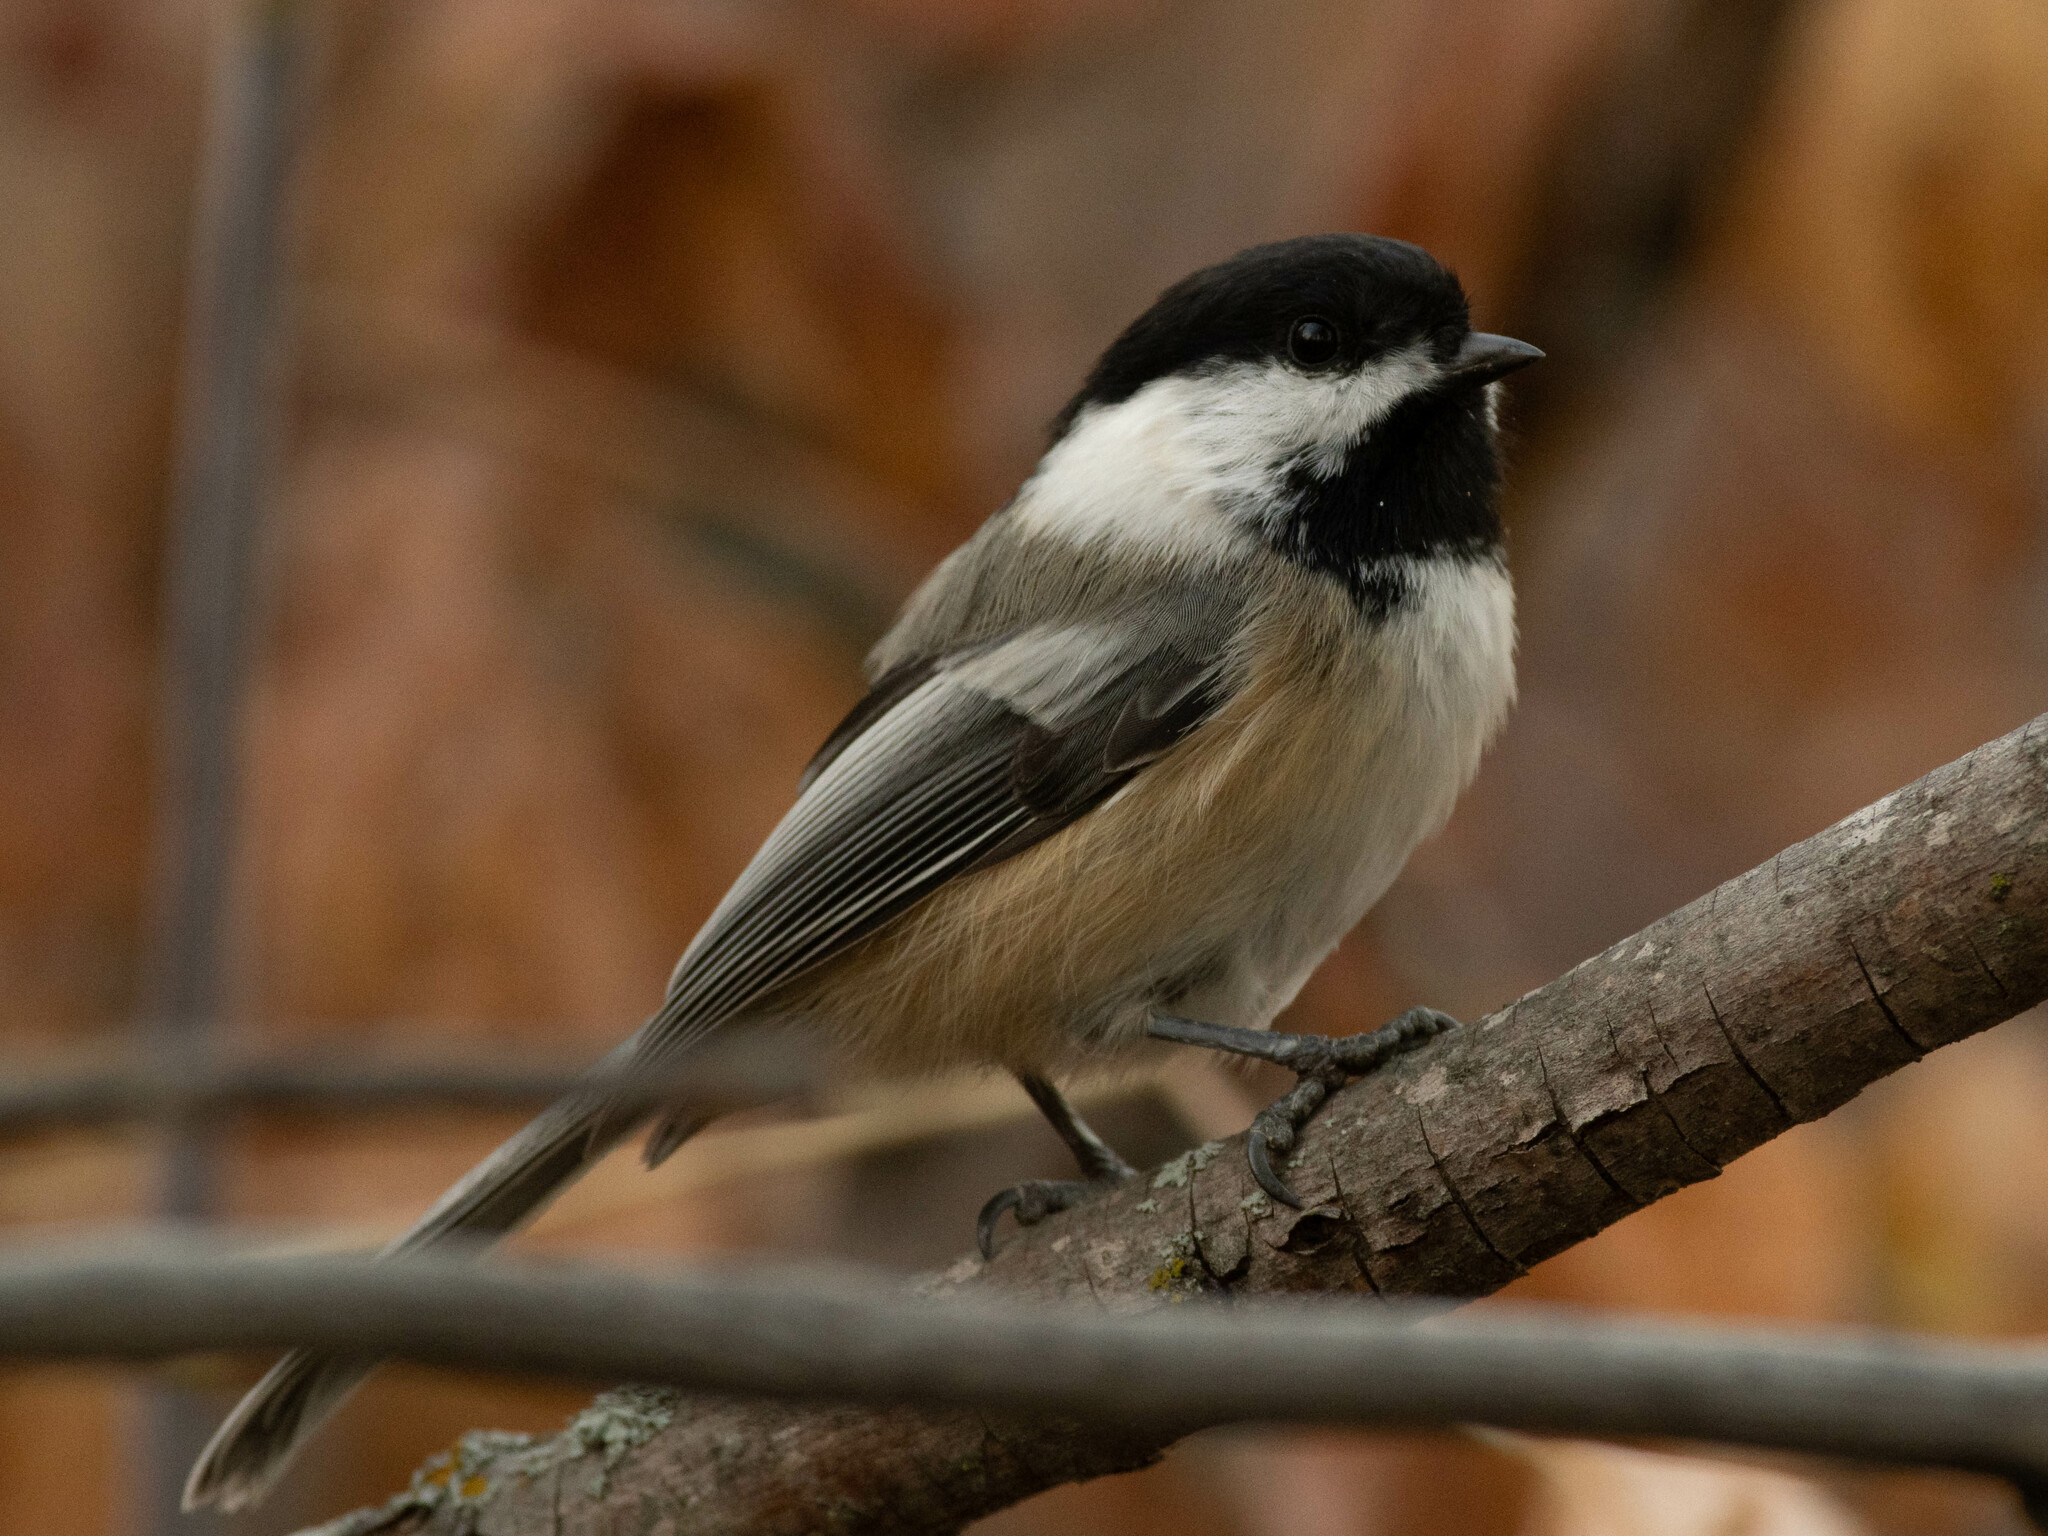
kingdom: Animalia
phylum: Chordata
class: Aves
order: Passeriformes
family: Paridae
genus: Poecile
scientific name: Poecile atricapillus
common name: Black-capped chickadee
